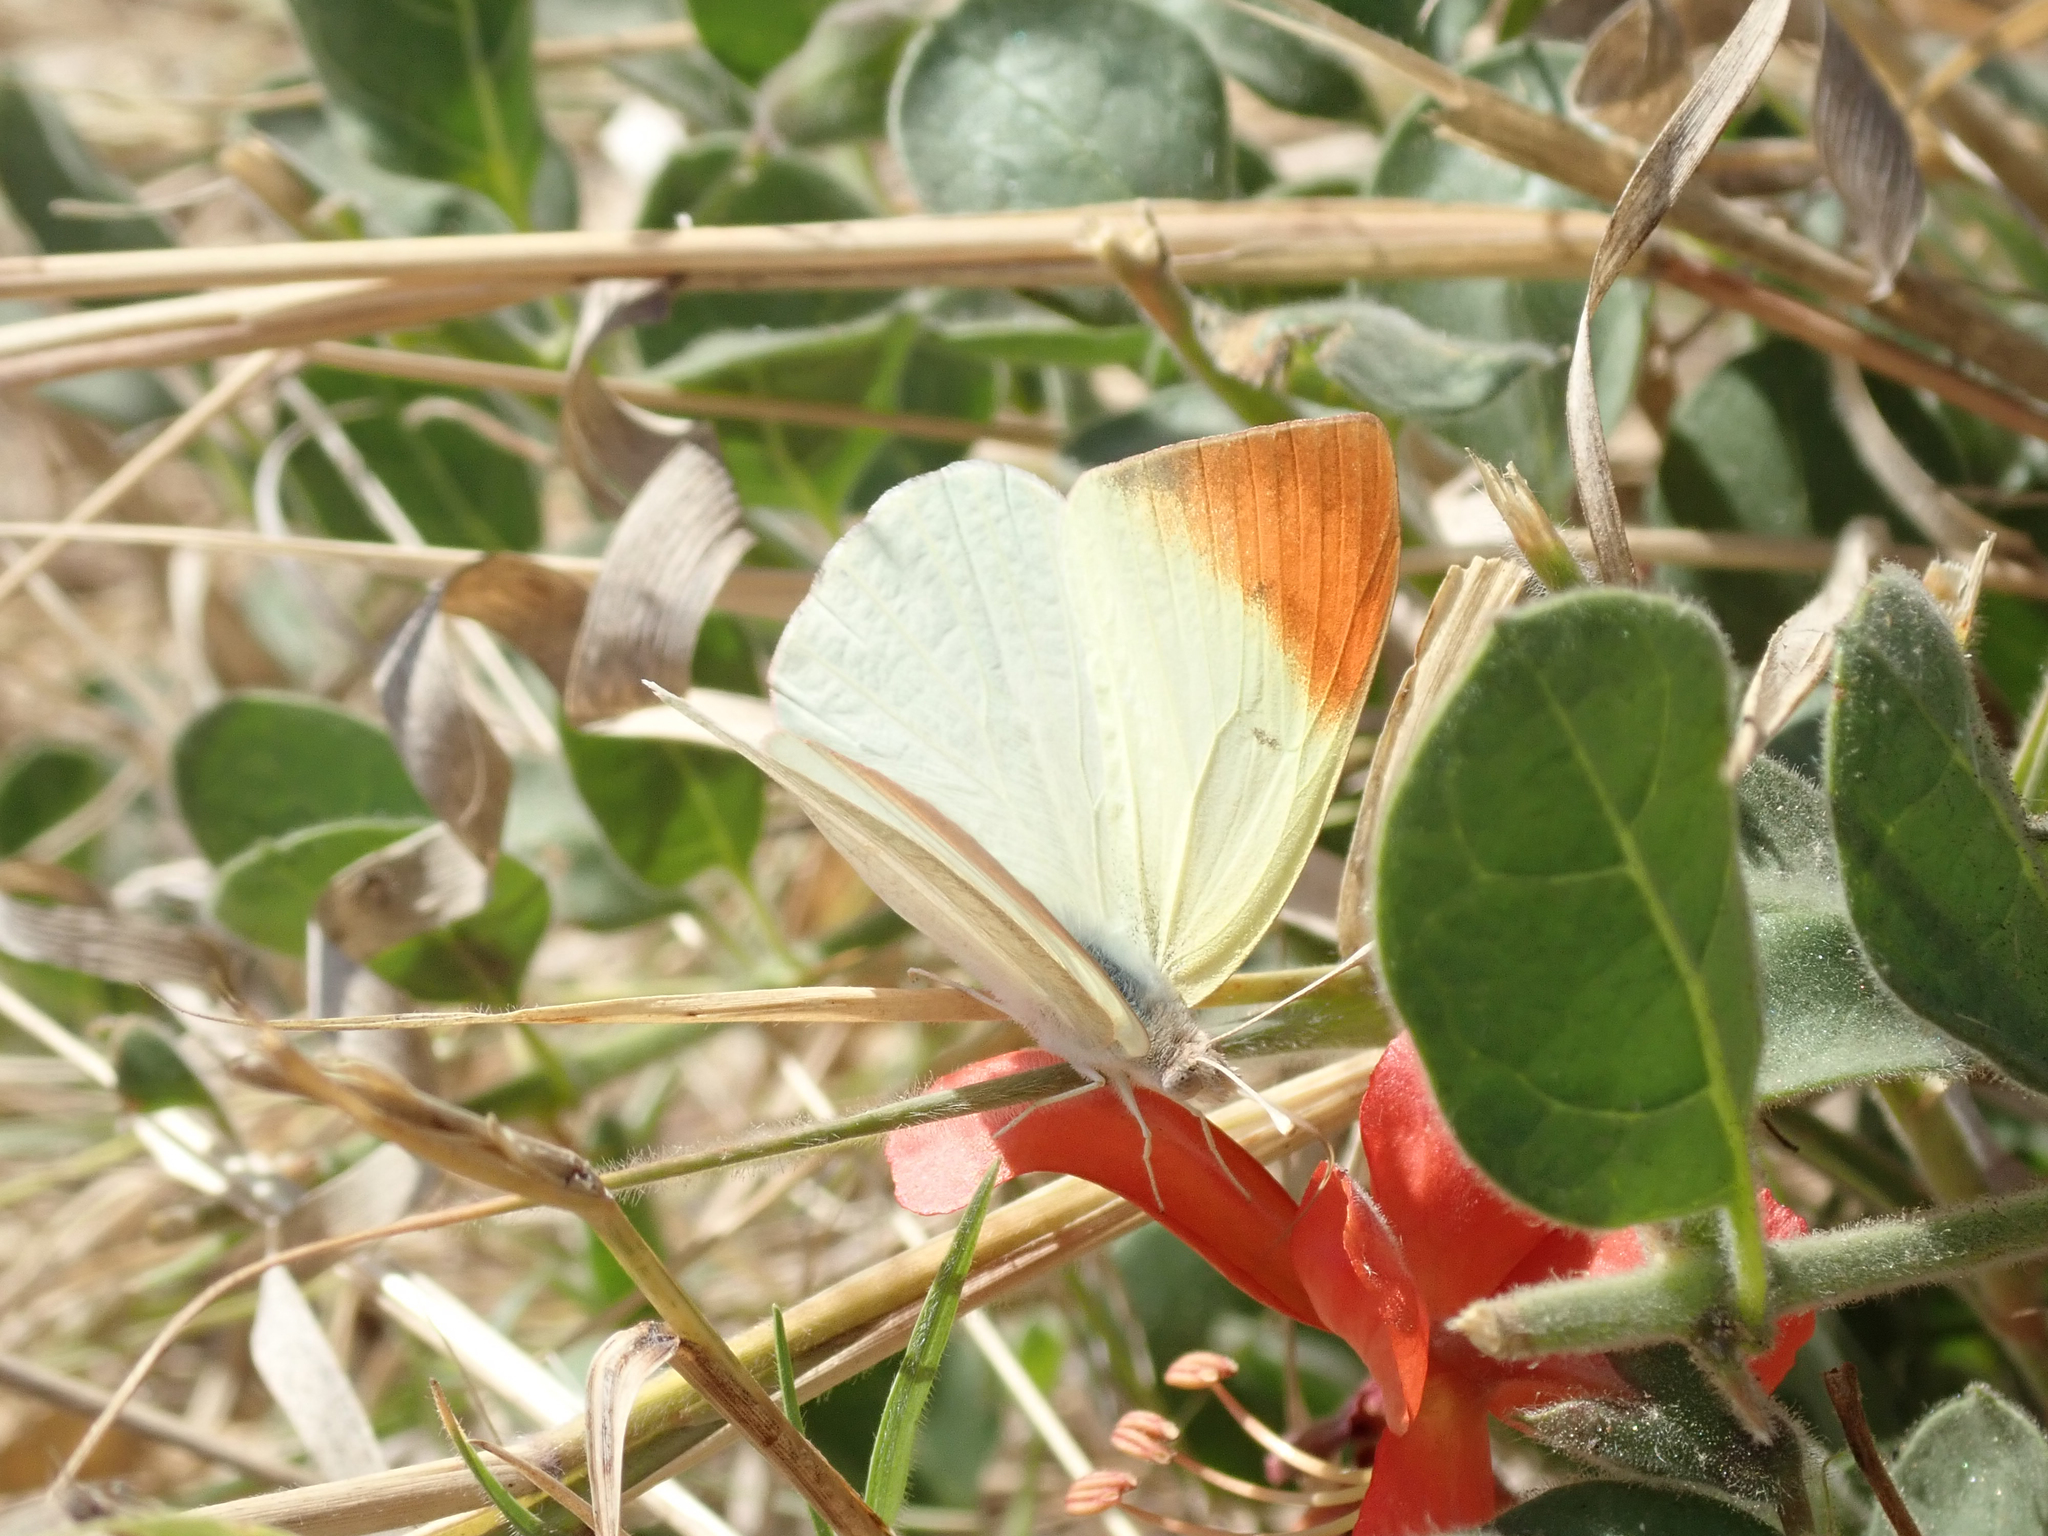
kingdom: Animalia
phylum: Arthropoda
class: Insecta
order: Lepidoptera
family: Pieridae
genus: Colotis
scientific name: Colotis subfasciatus
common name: Lemon traveller tip
